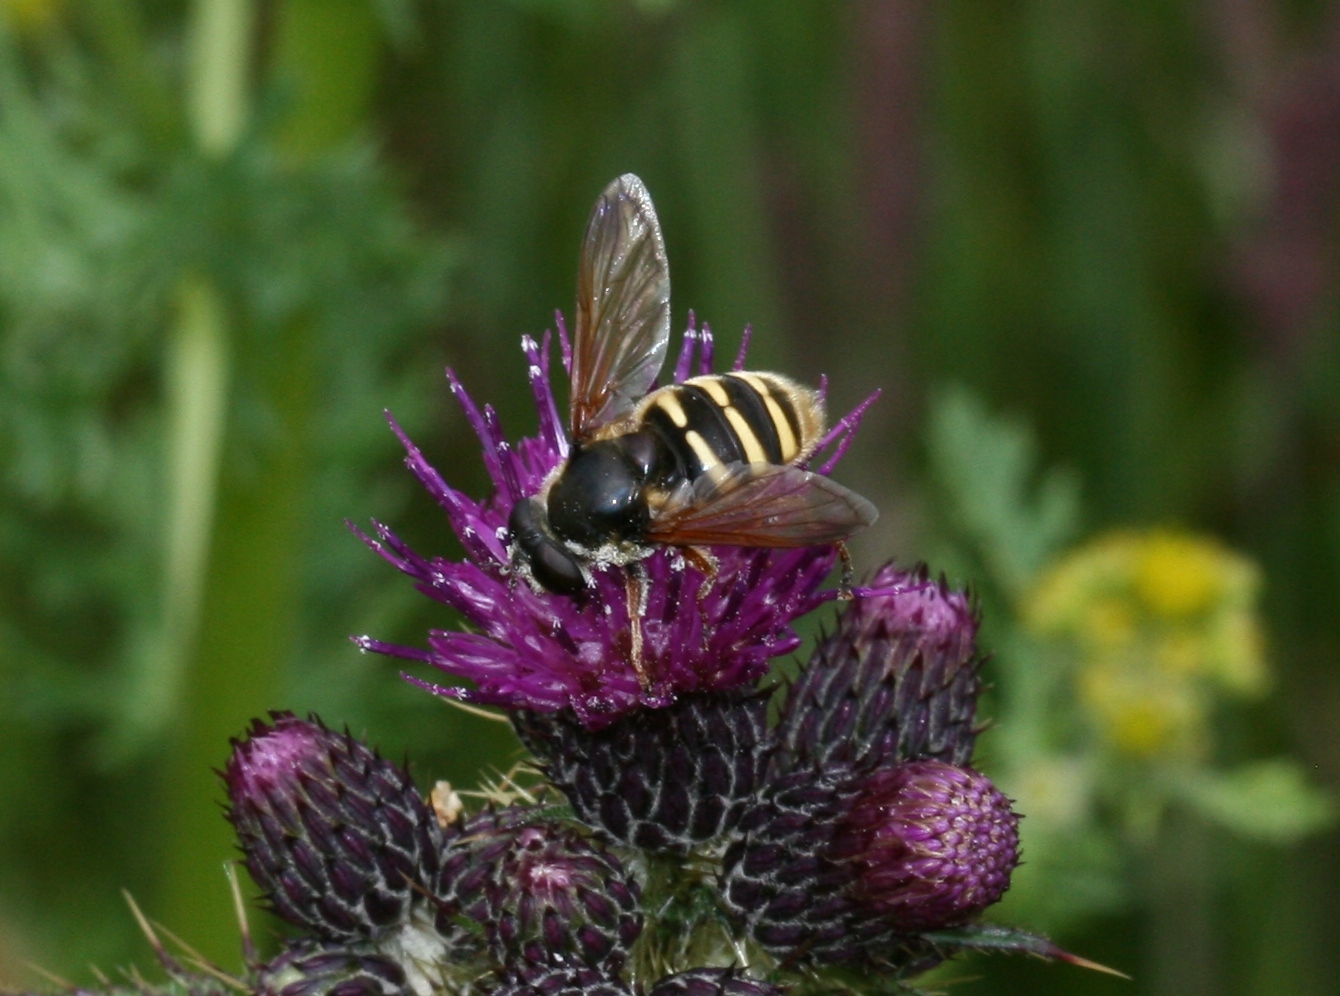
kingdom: Animalia
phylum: Arthropoda
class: Insecta
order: Diptera
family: Syrphidae
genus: Sericomyia
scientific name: Sericomyia silentis
